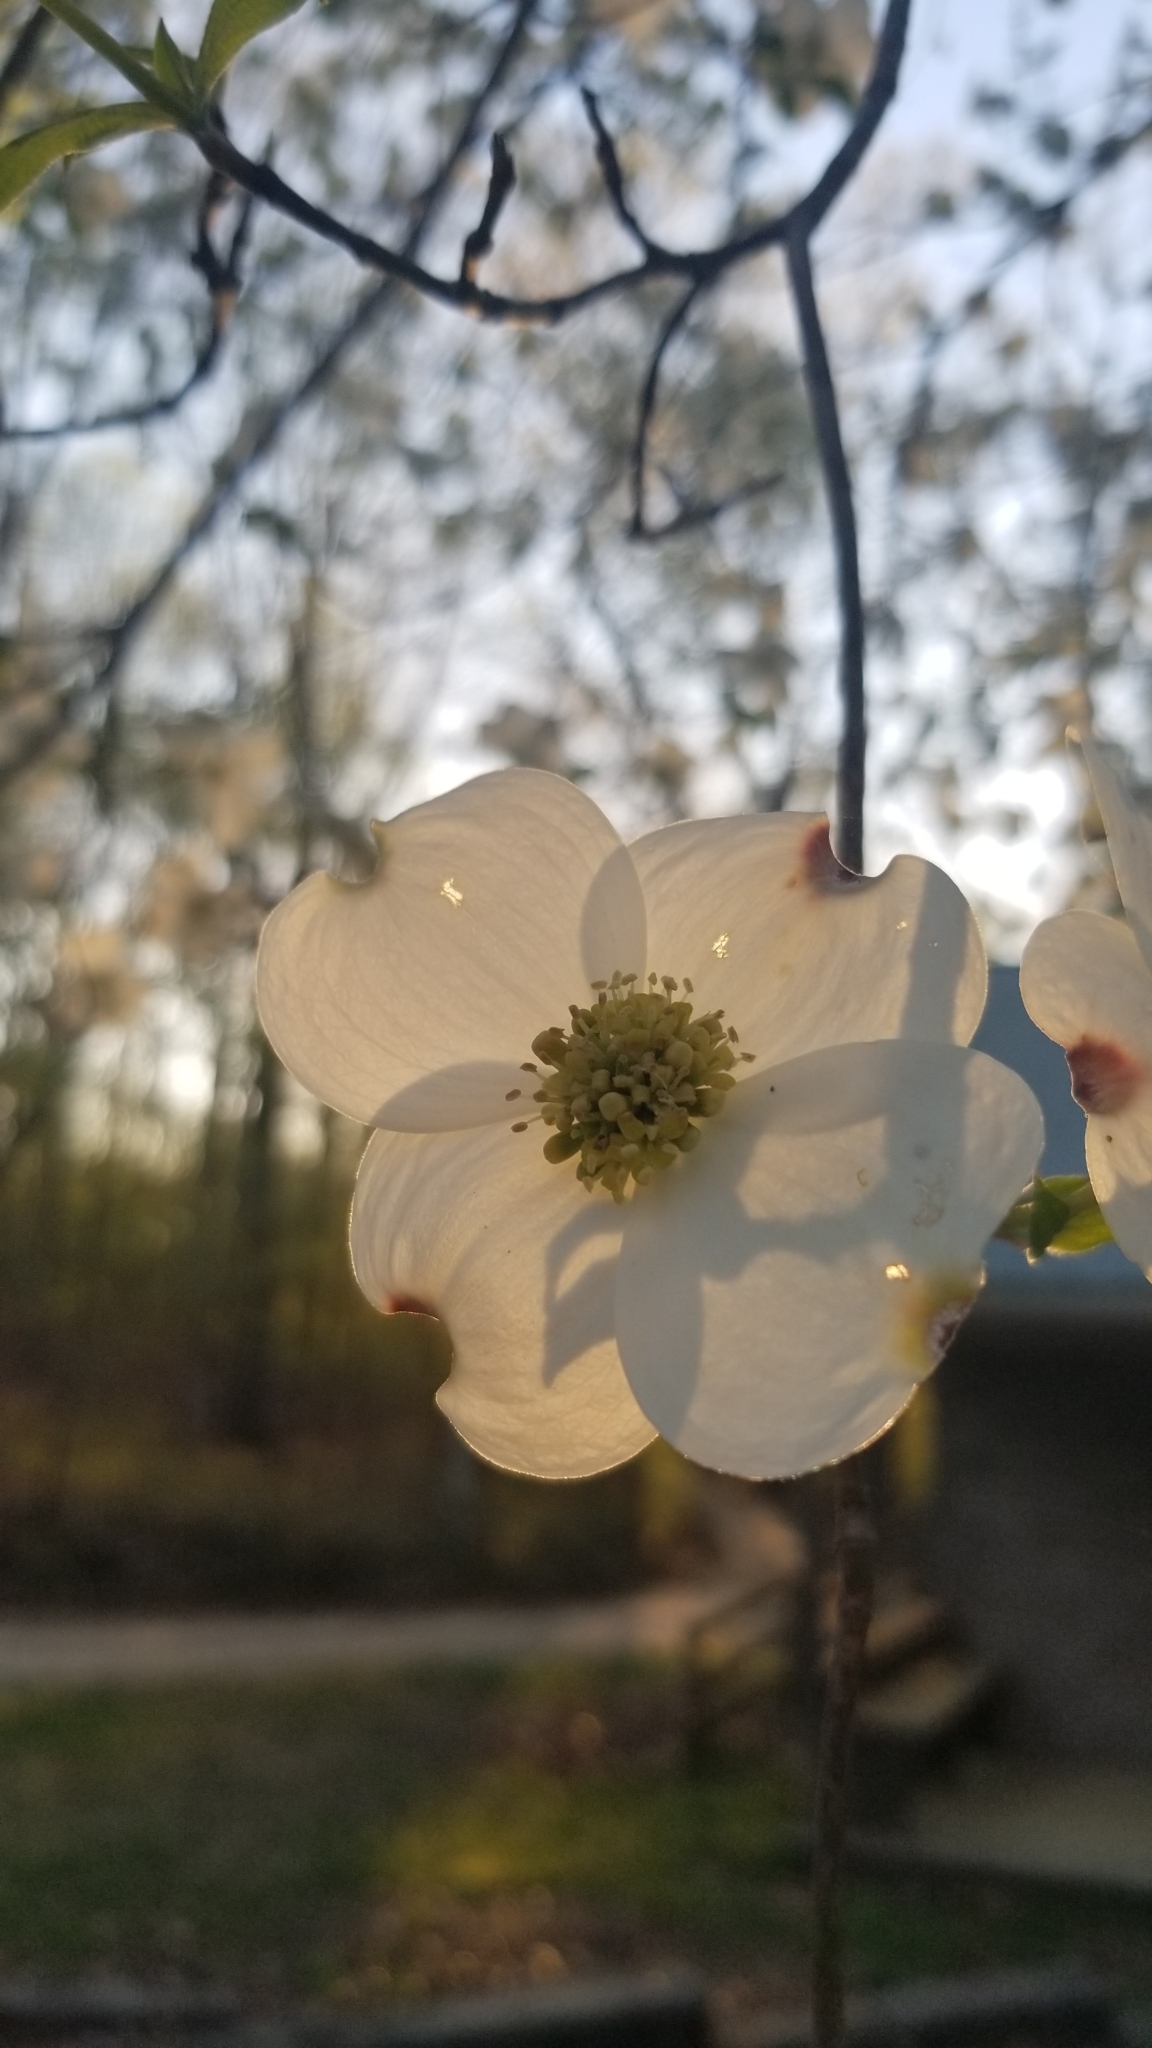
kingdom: Plantae
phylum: Tracheophyta
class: Magnoliopsida
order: Cornales
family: Cornaceae
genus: Cornus
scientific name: Cornus florida
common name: Flowering dogwood
